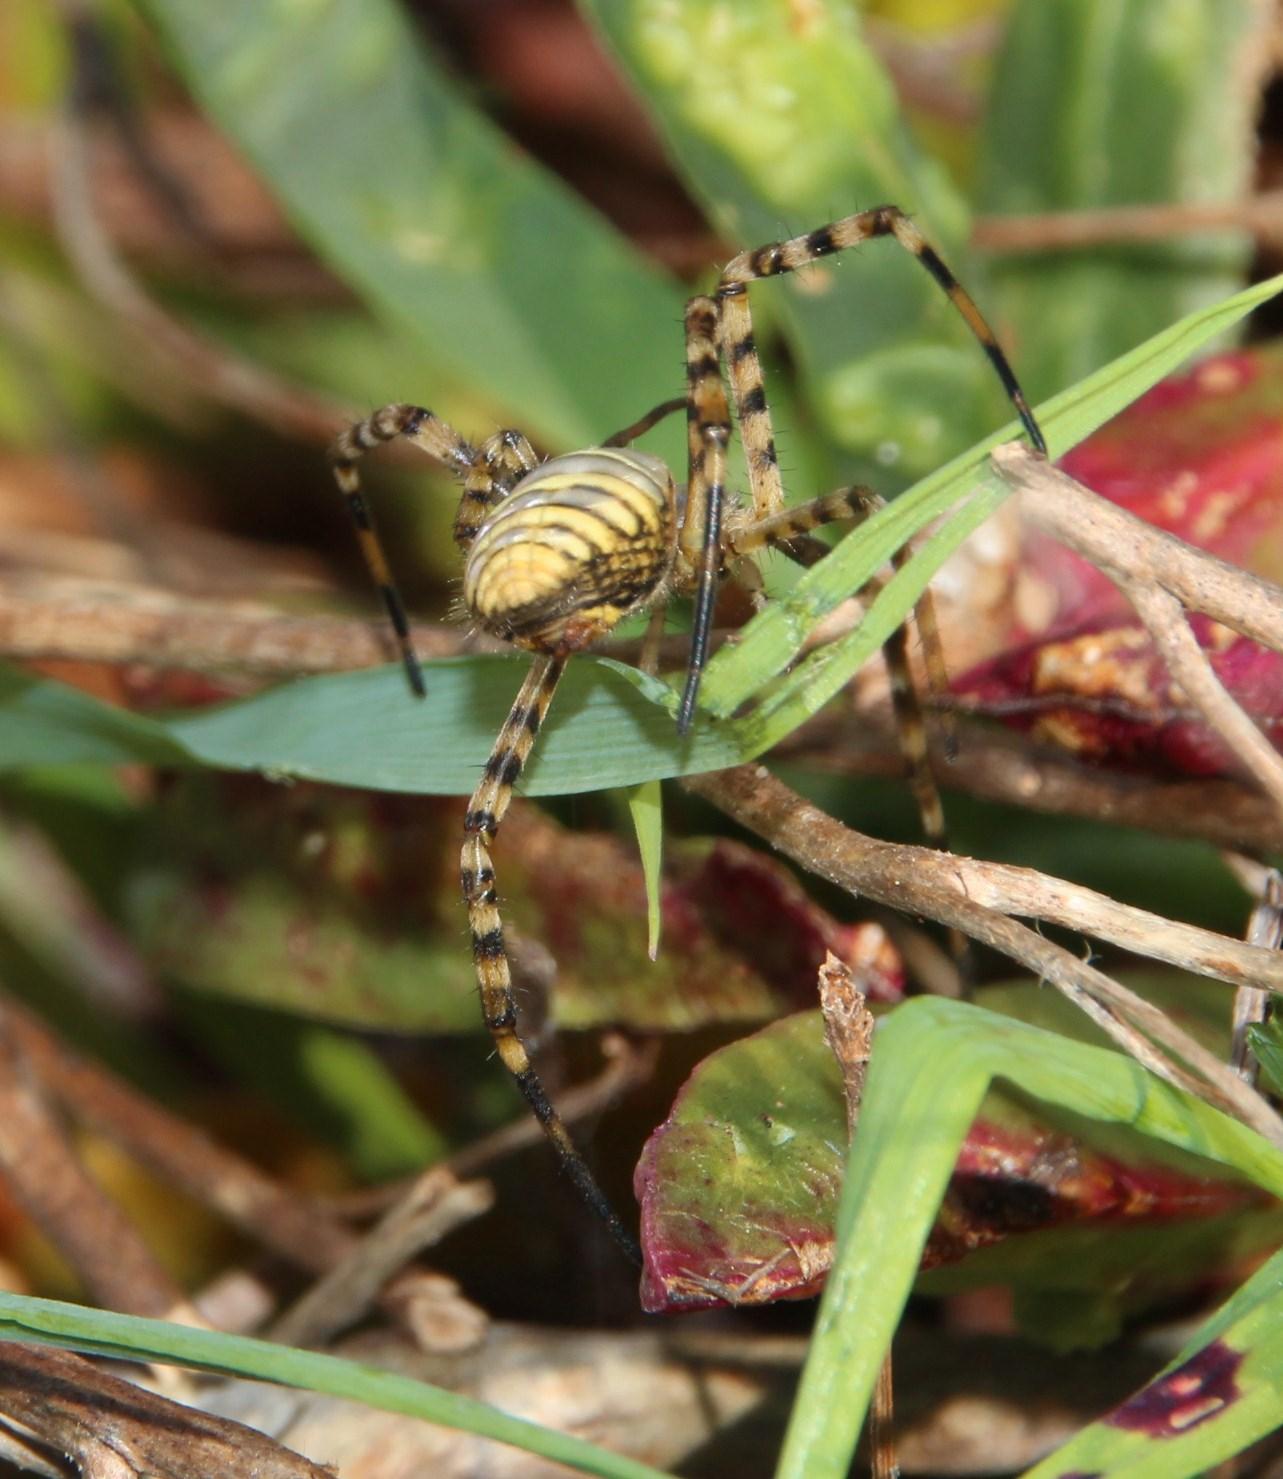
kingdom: Animalia
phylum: Arthropoda
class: Arachnida
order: Araneae
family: Araneidae
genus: Argiope
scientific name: Argiope trifasciata
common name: Banded garden spider
